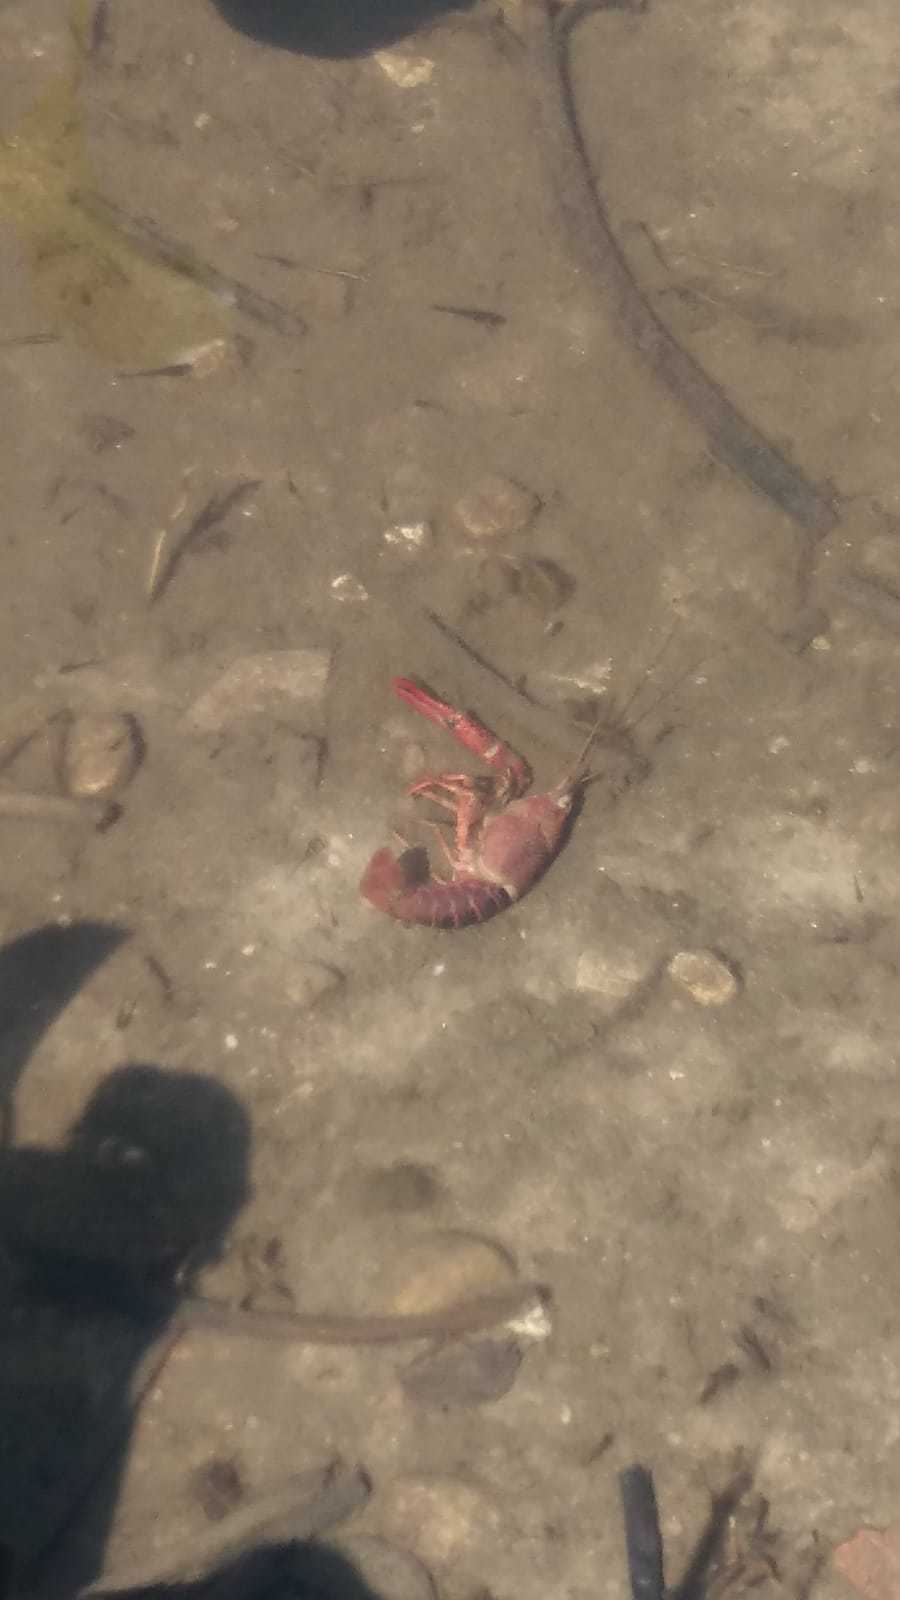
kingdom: Animalia
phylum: Arthropoda
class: Malacostraca
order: Decapoda
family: Cambaridae
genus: Procambarus
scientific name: Procambarus clarkii
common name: Red swamp crayfish
